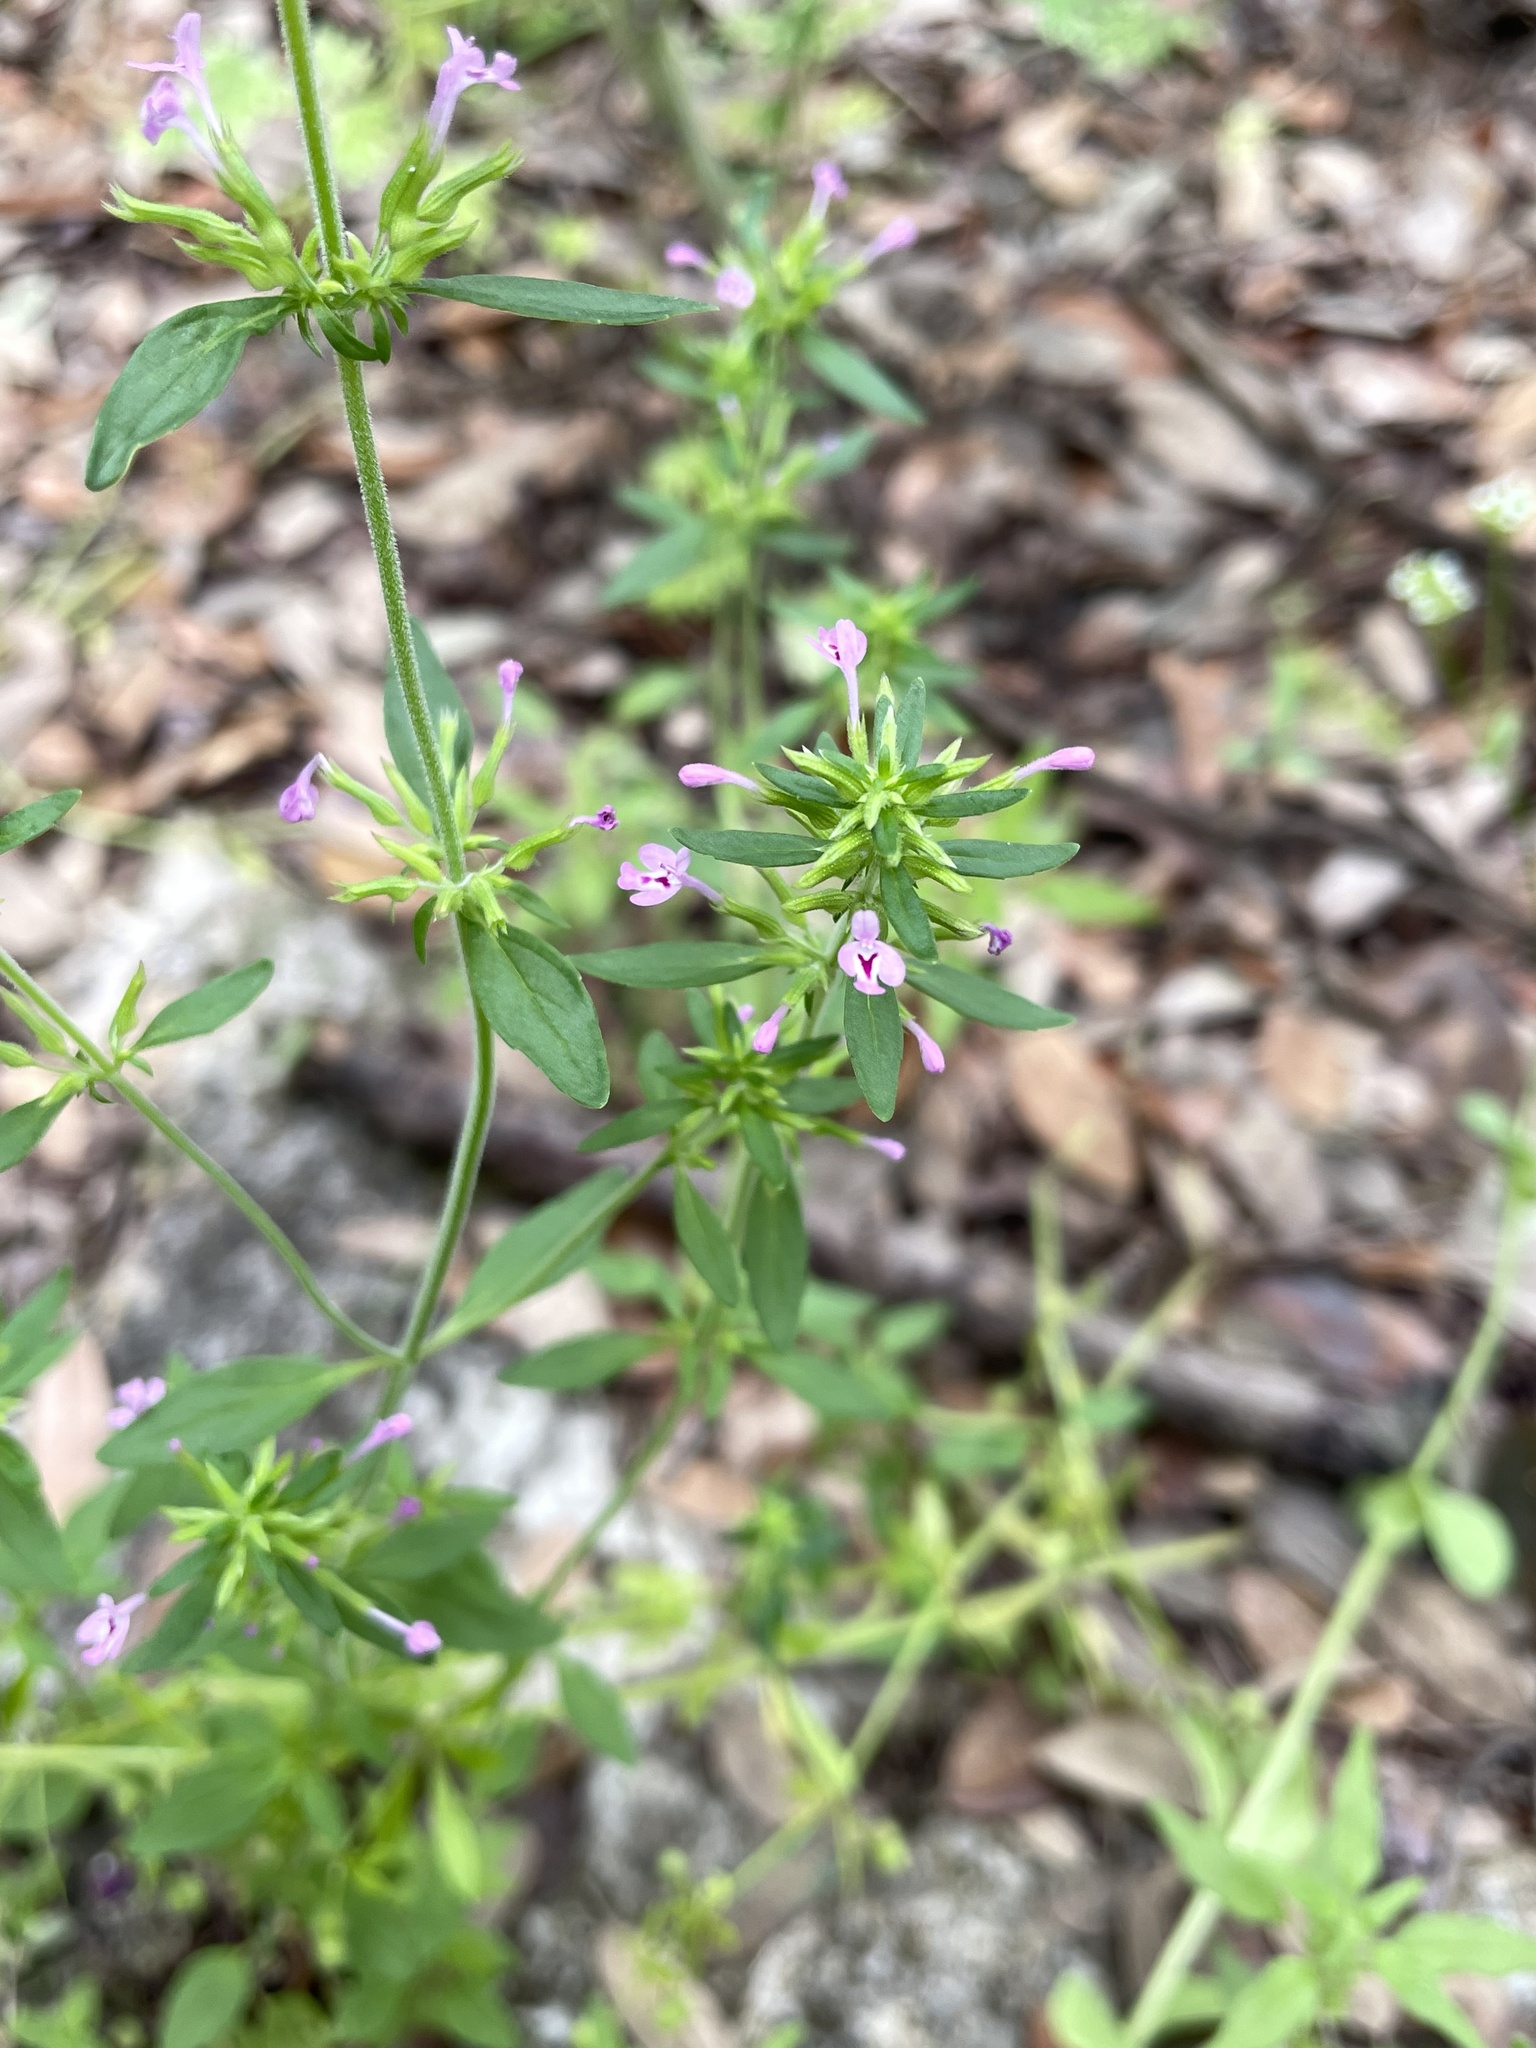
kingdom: Plantae
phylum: Tracheophyta
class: Magnoliopsida
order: Lamiales
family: Lamiaceae
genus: Hedeoma
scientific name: Hedeoma acinoides
